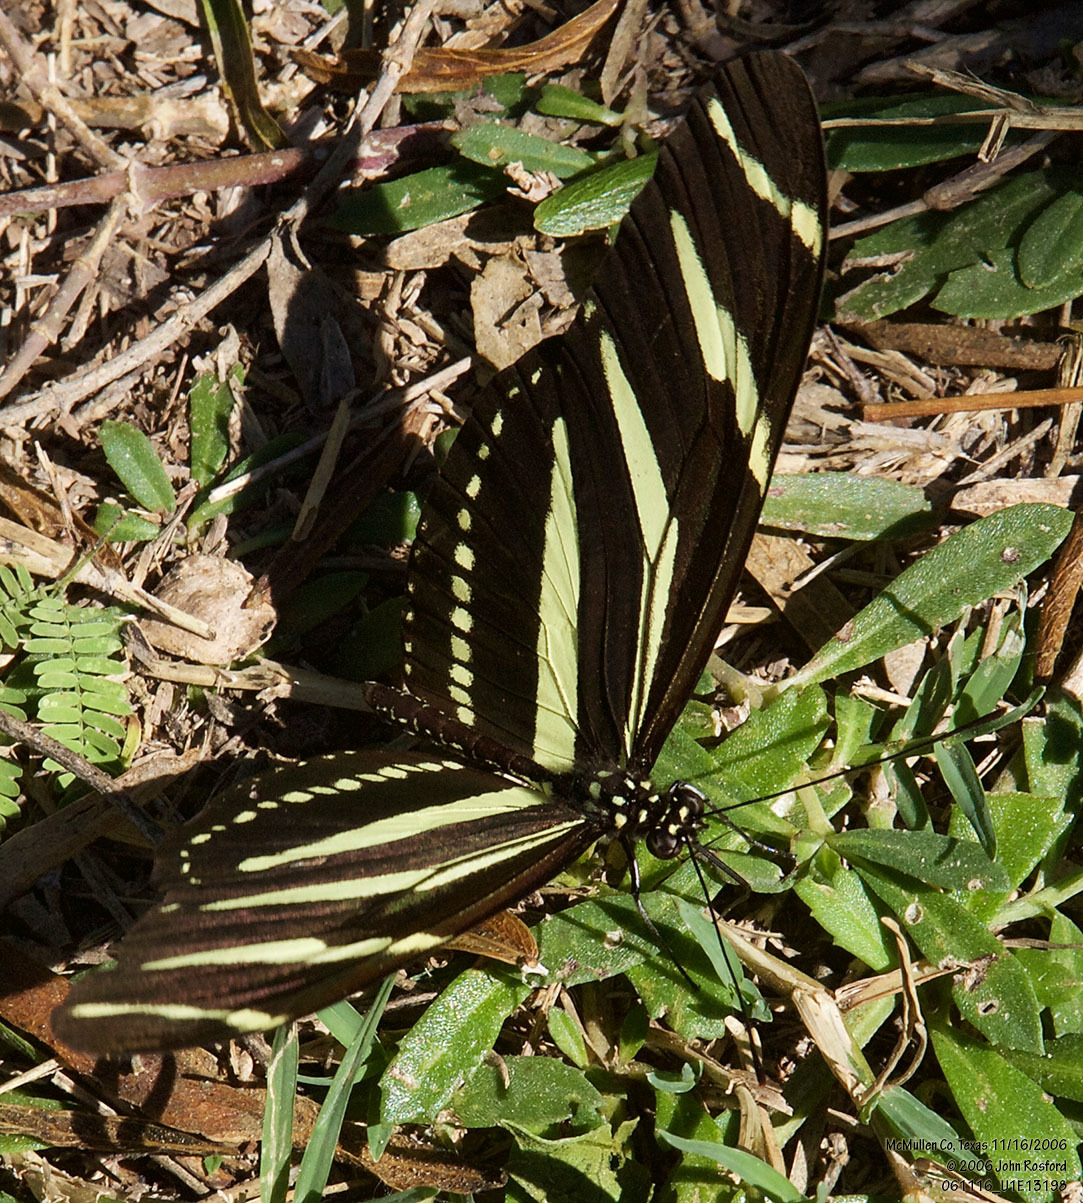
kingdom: Animalia
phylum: Arthropoda
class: Insecta
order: Lepidoptera
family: Nymphalidae
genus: Heliconius
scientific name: Heliconius charithonia
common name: Zebra long wing
